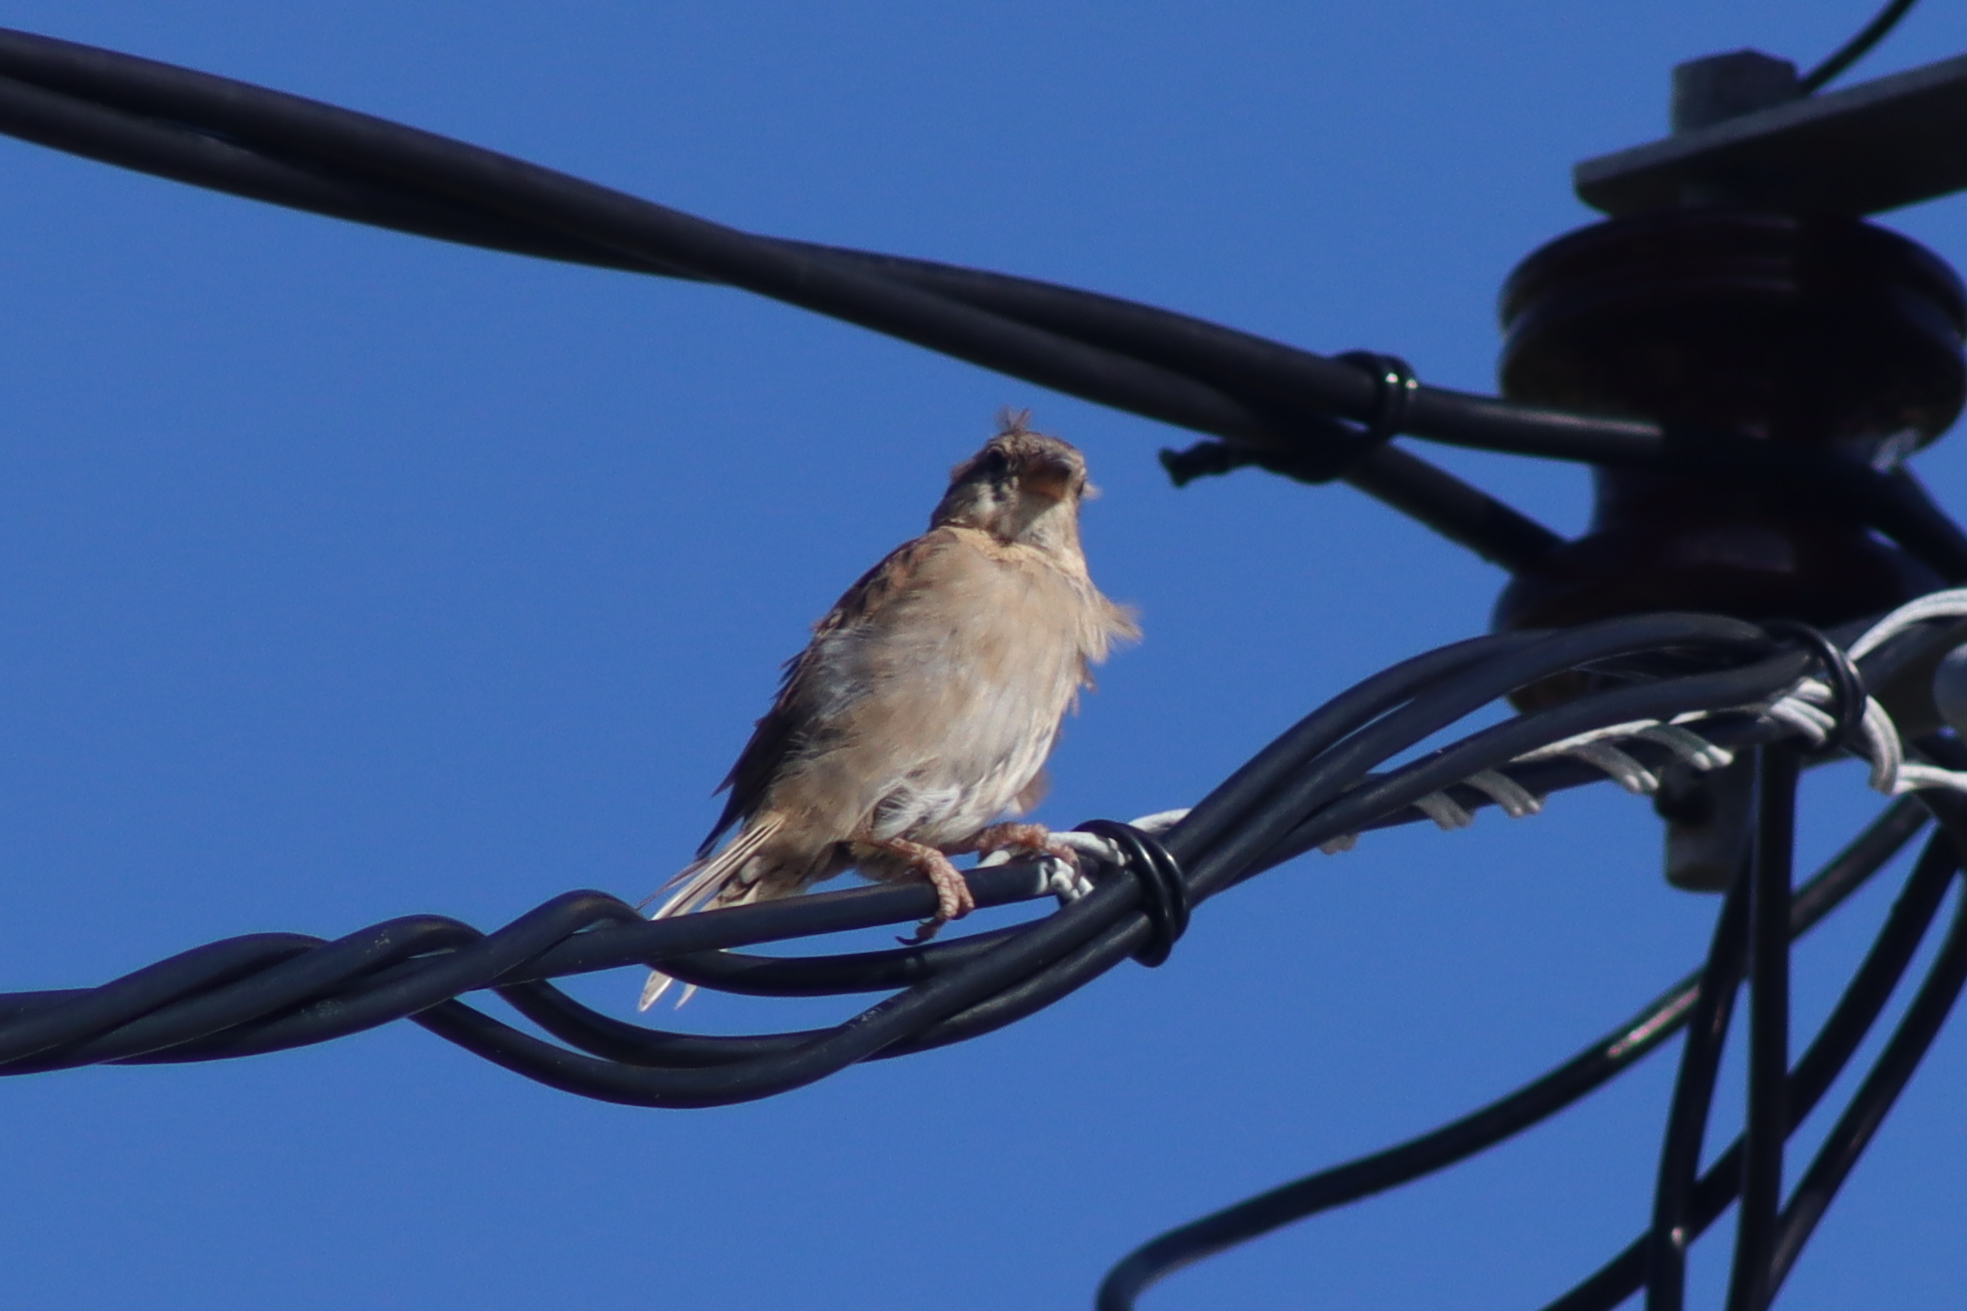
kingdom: Animalia
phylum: Chordata
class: Aves
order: Passeriformes
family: Passeridae
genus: Passer
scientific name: Passer domesticus
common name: House sparrow
